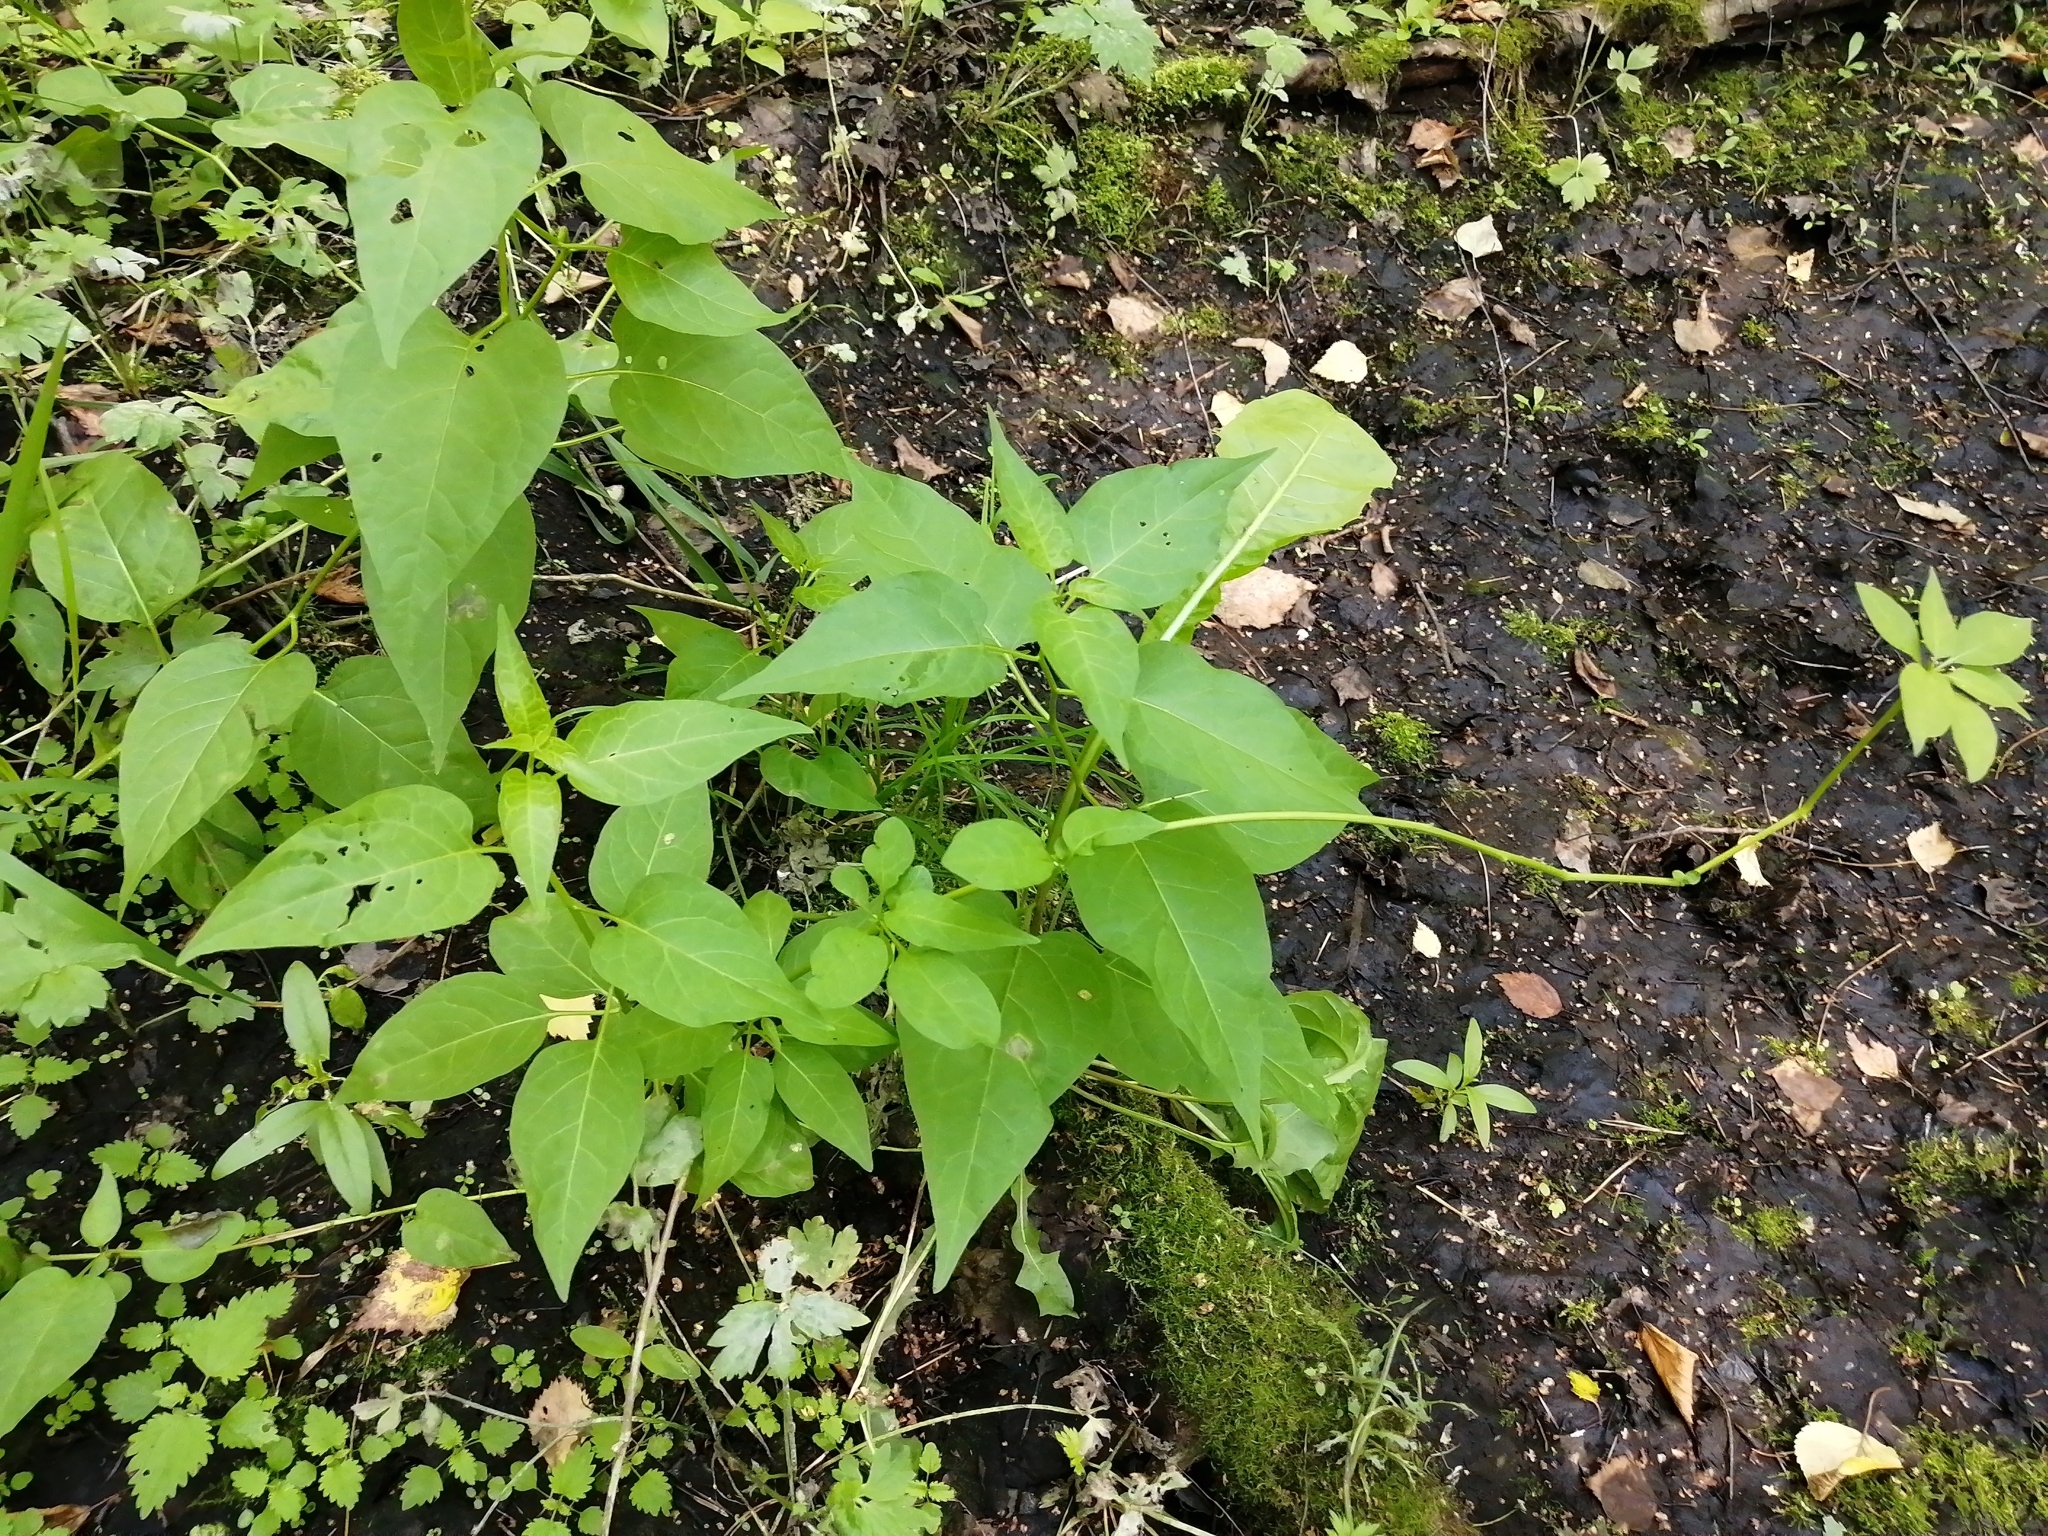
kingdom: Plantae
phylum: Tracheophyta
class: Magnoliopsida
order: Solanales
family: Solanaceae
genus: Solanum
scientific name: Solanum dulcamara
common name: Climbing nightshade
